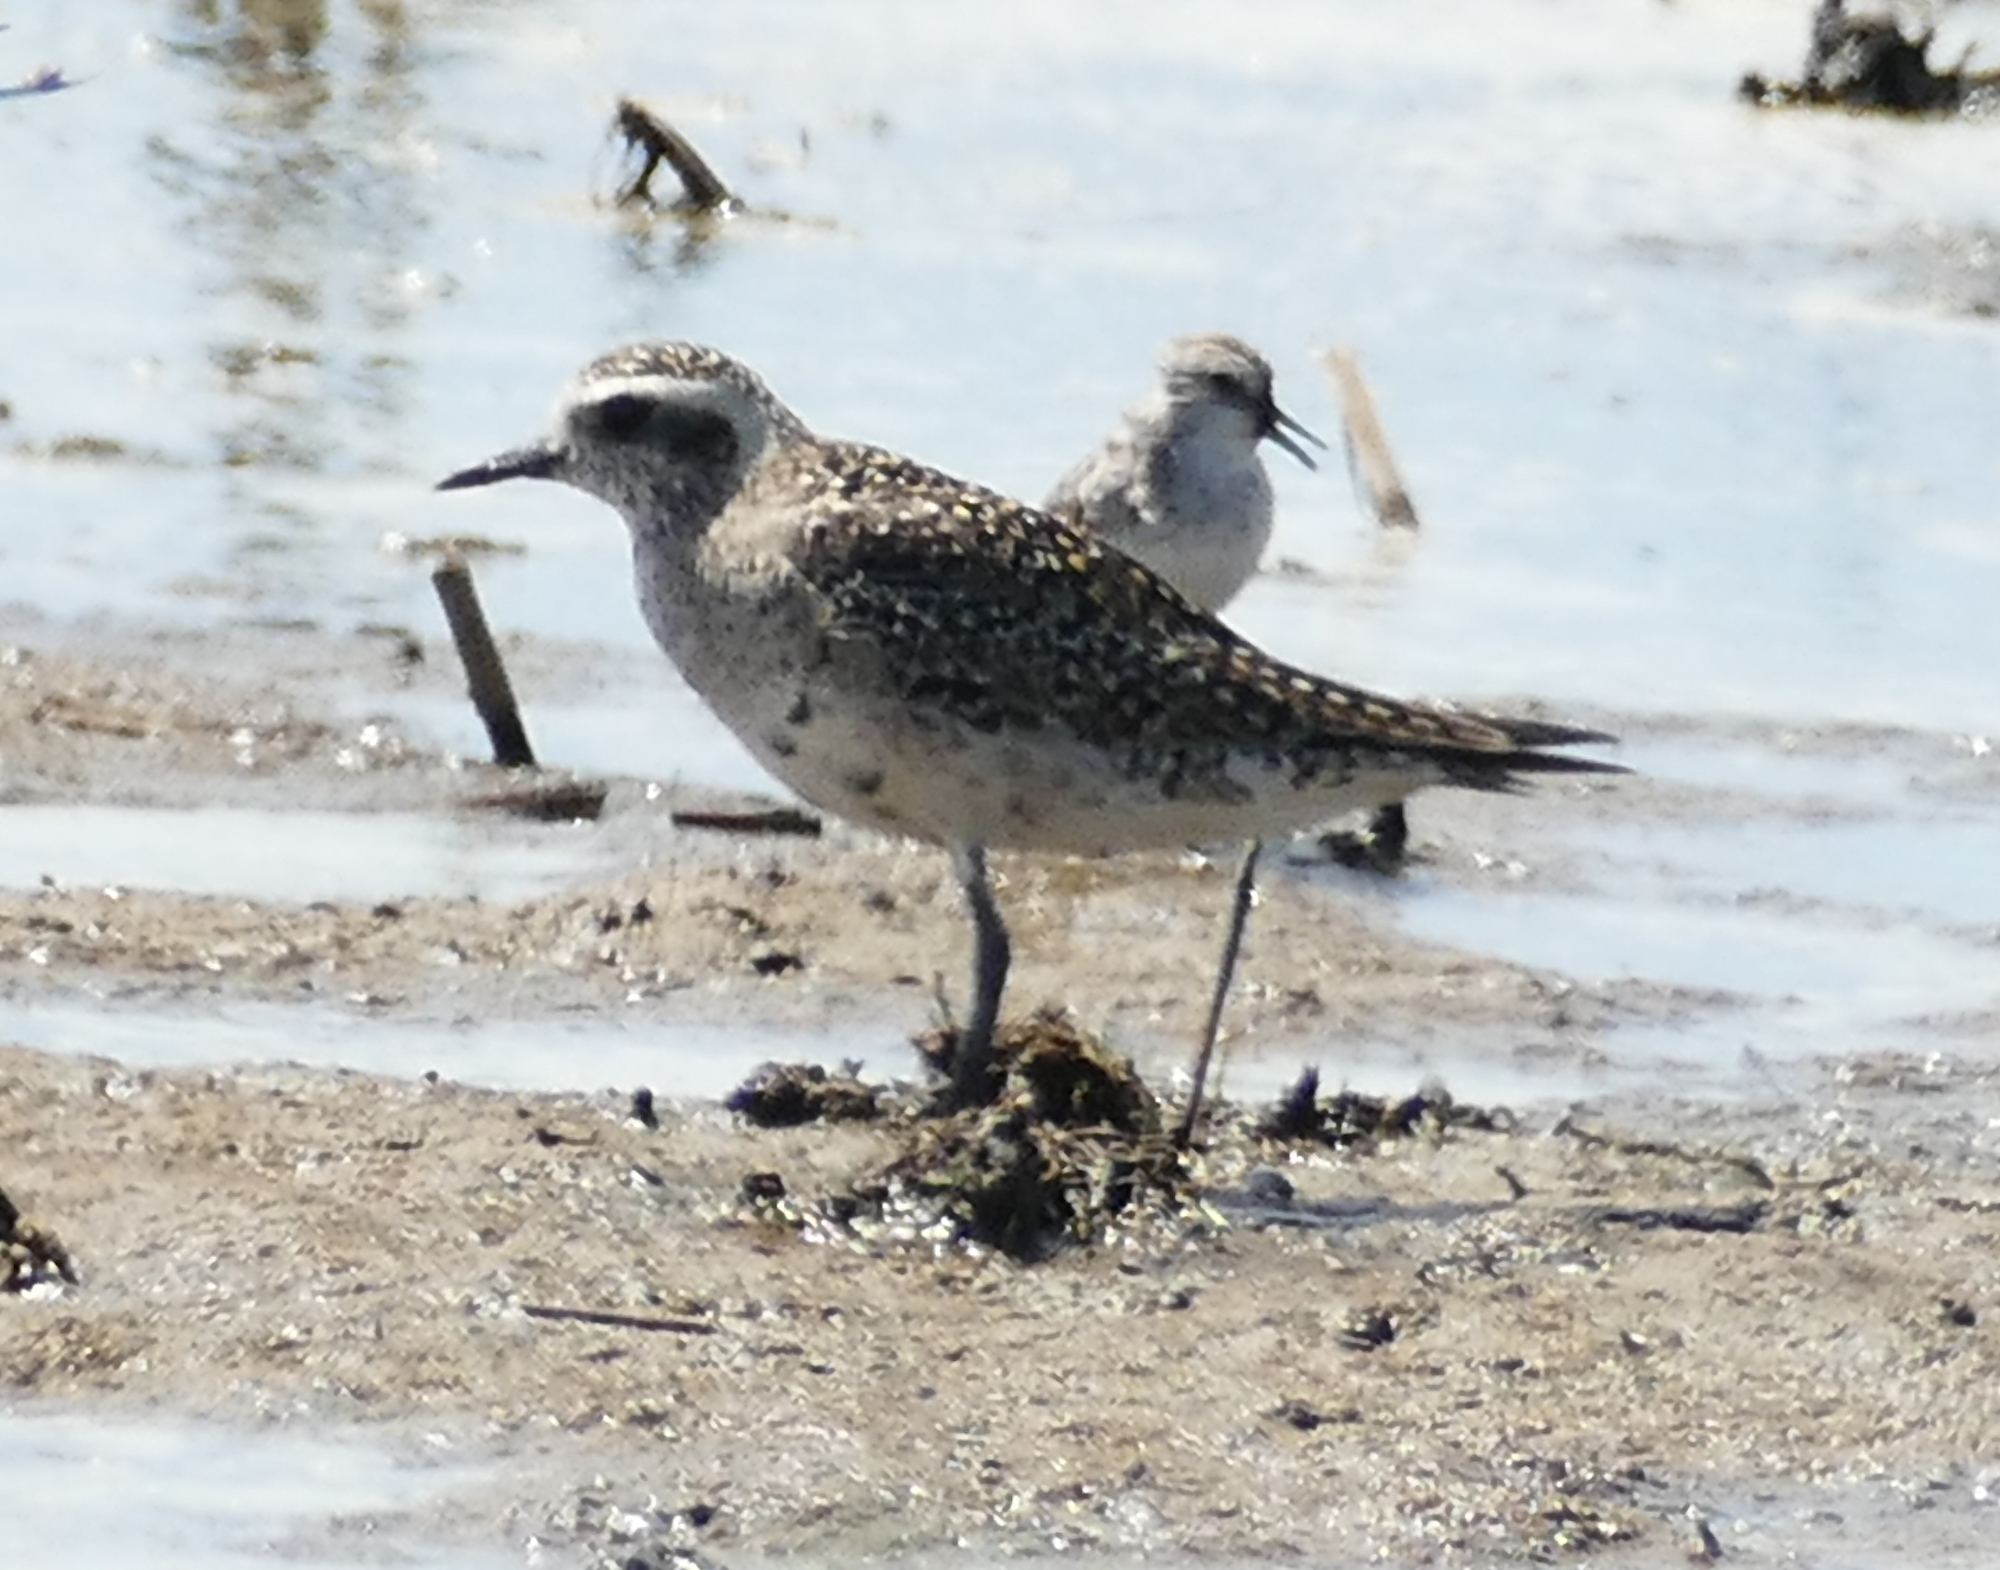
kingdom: Animalia
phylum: Chordata
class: Aves
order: Charadriiformes
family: Charadriidae
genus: Pluvialis
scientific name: Pluvialis dominica
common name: American golden plover
